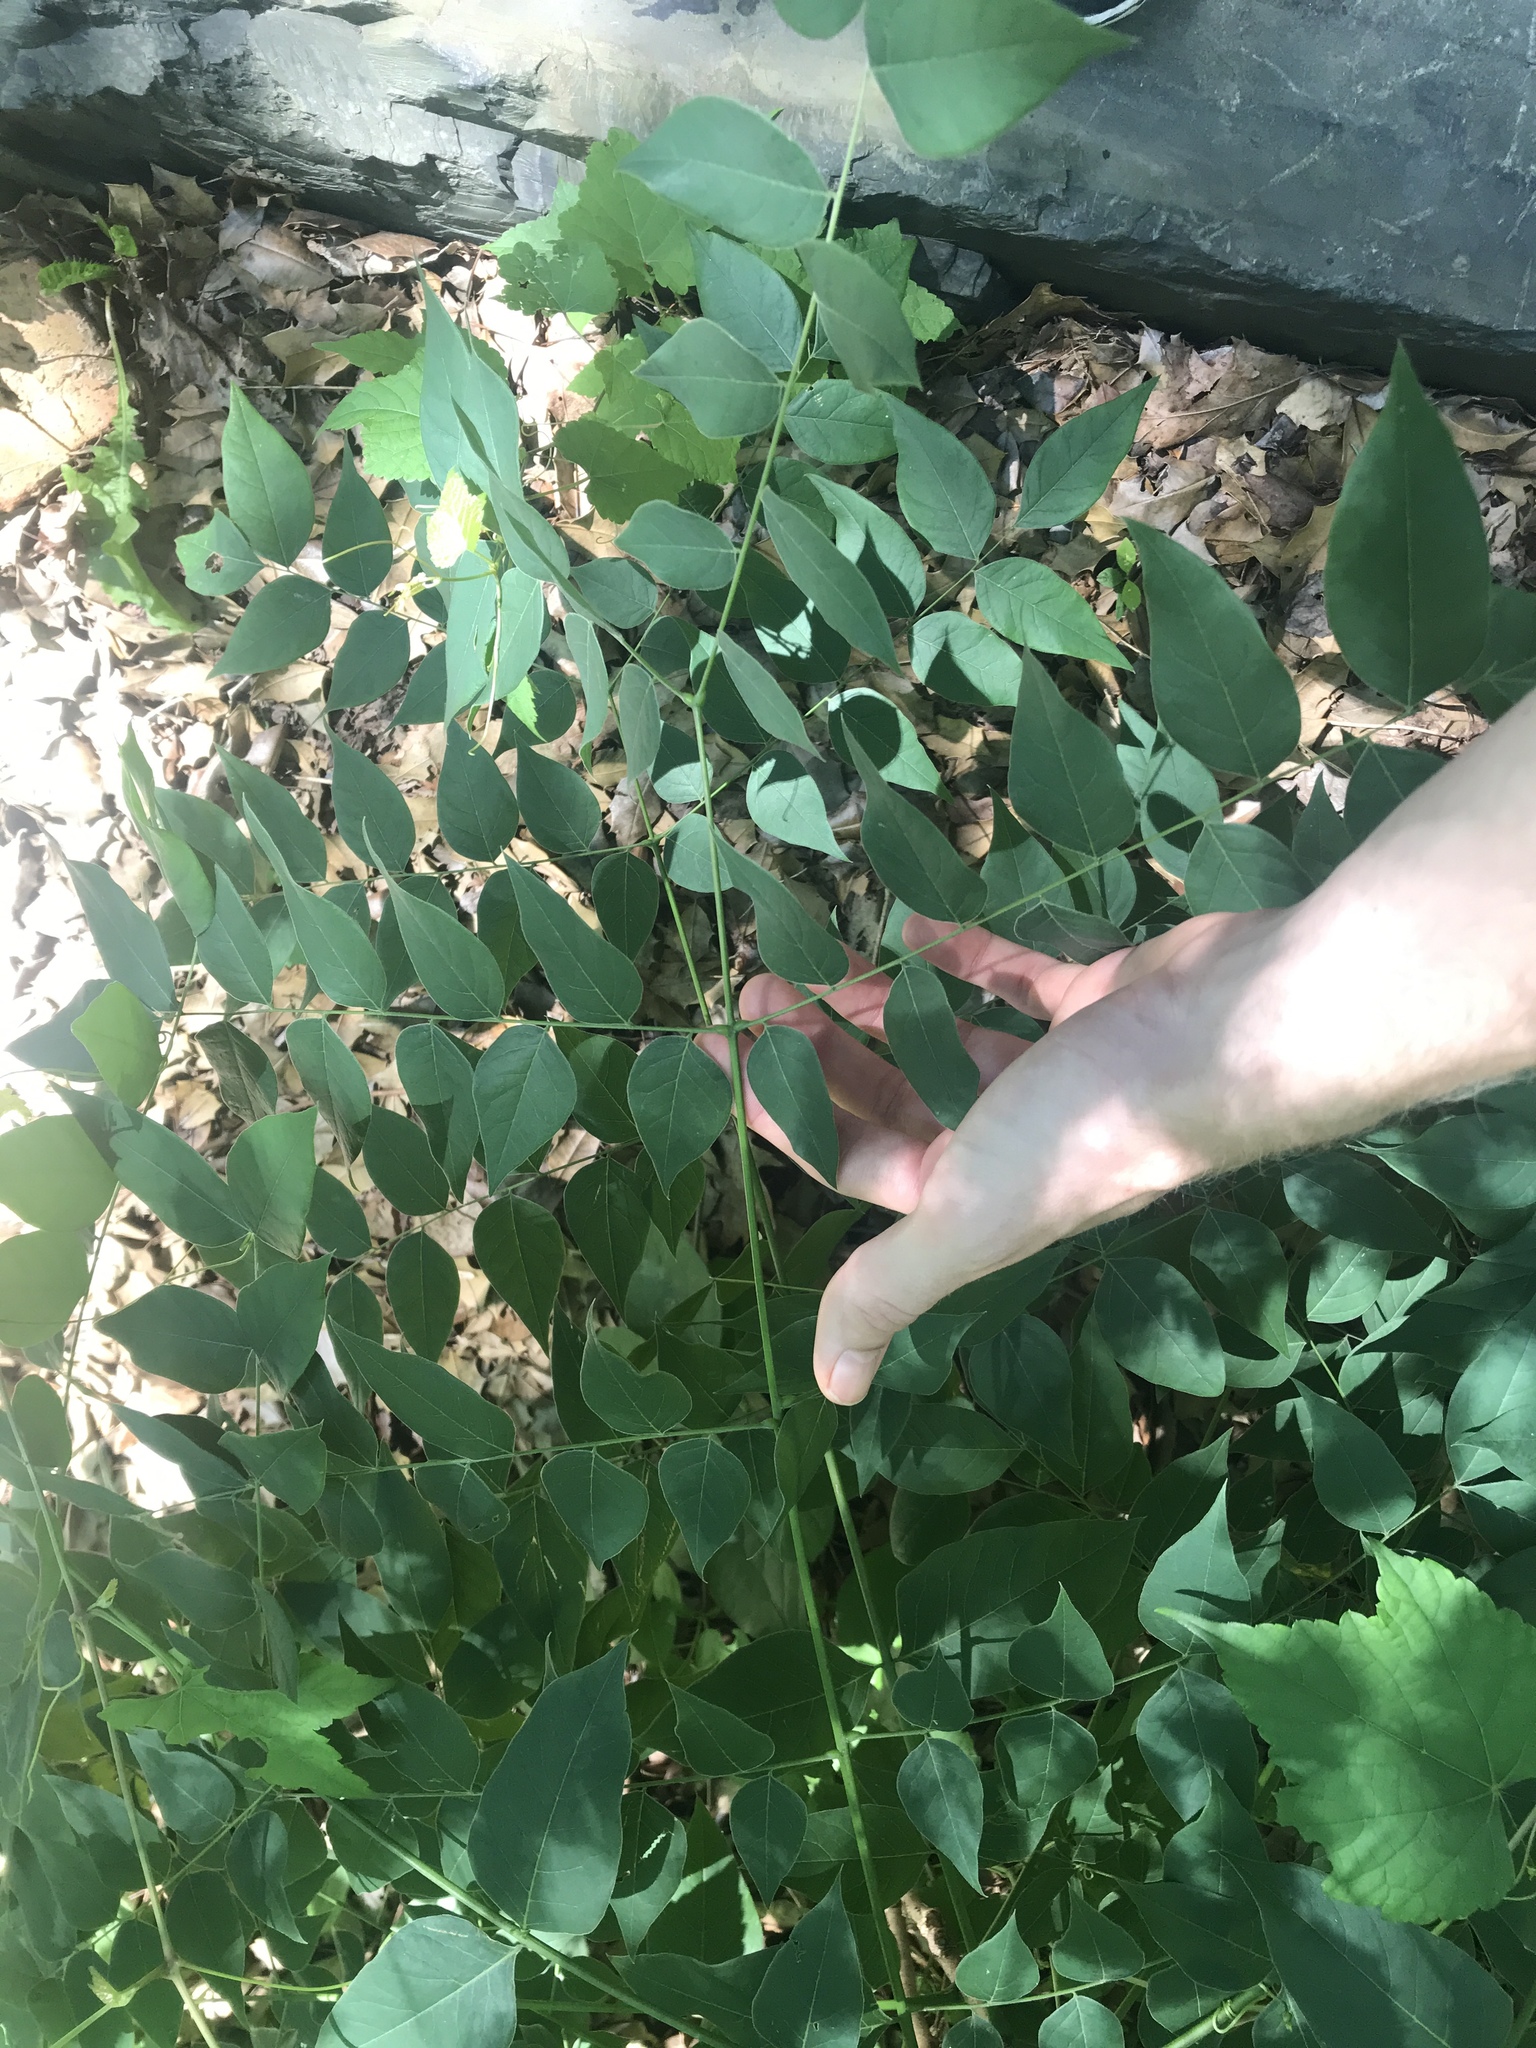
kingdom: Plantae
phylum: Tracheophyta
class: Magnoliopsida
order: Fabales
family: Fabaceae
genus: Gymnocladus
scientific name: Gymnocladus dioicus
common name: Kentucky coffee-tree
